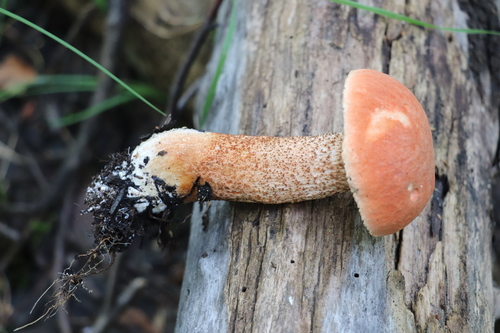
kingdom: Fungi
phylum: Basidiomycota
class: Agaricomycetes
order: Boletales
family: Boletaceae
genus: Leccinum
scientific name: Leccinum aurantiacum
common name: Orange bolete
